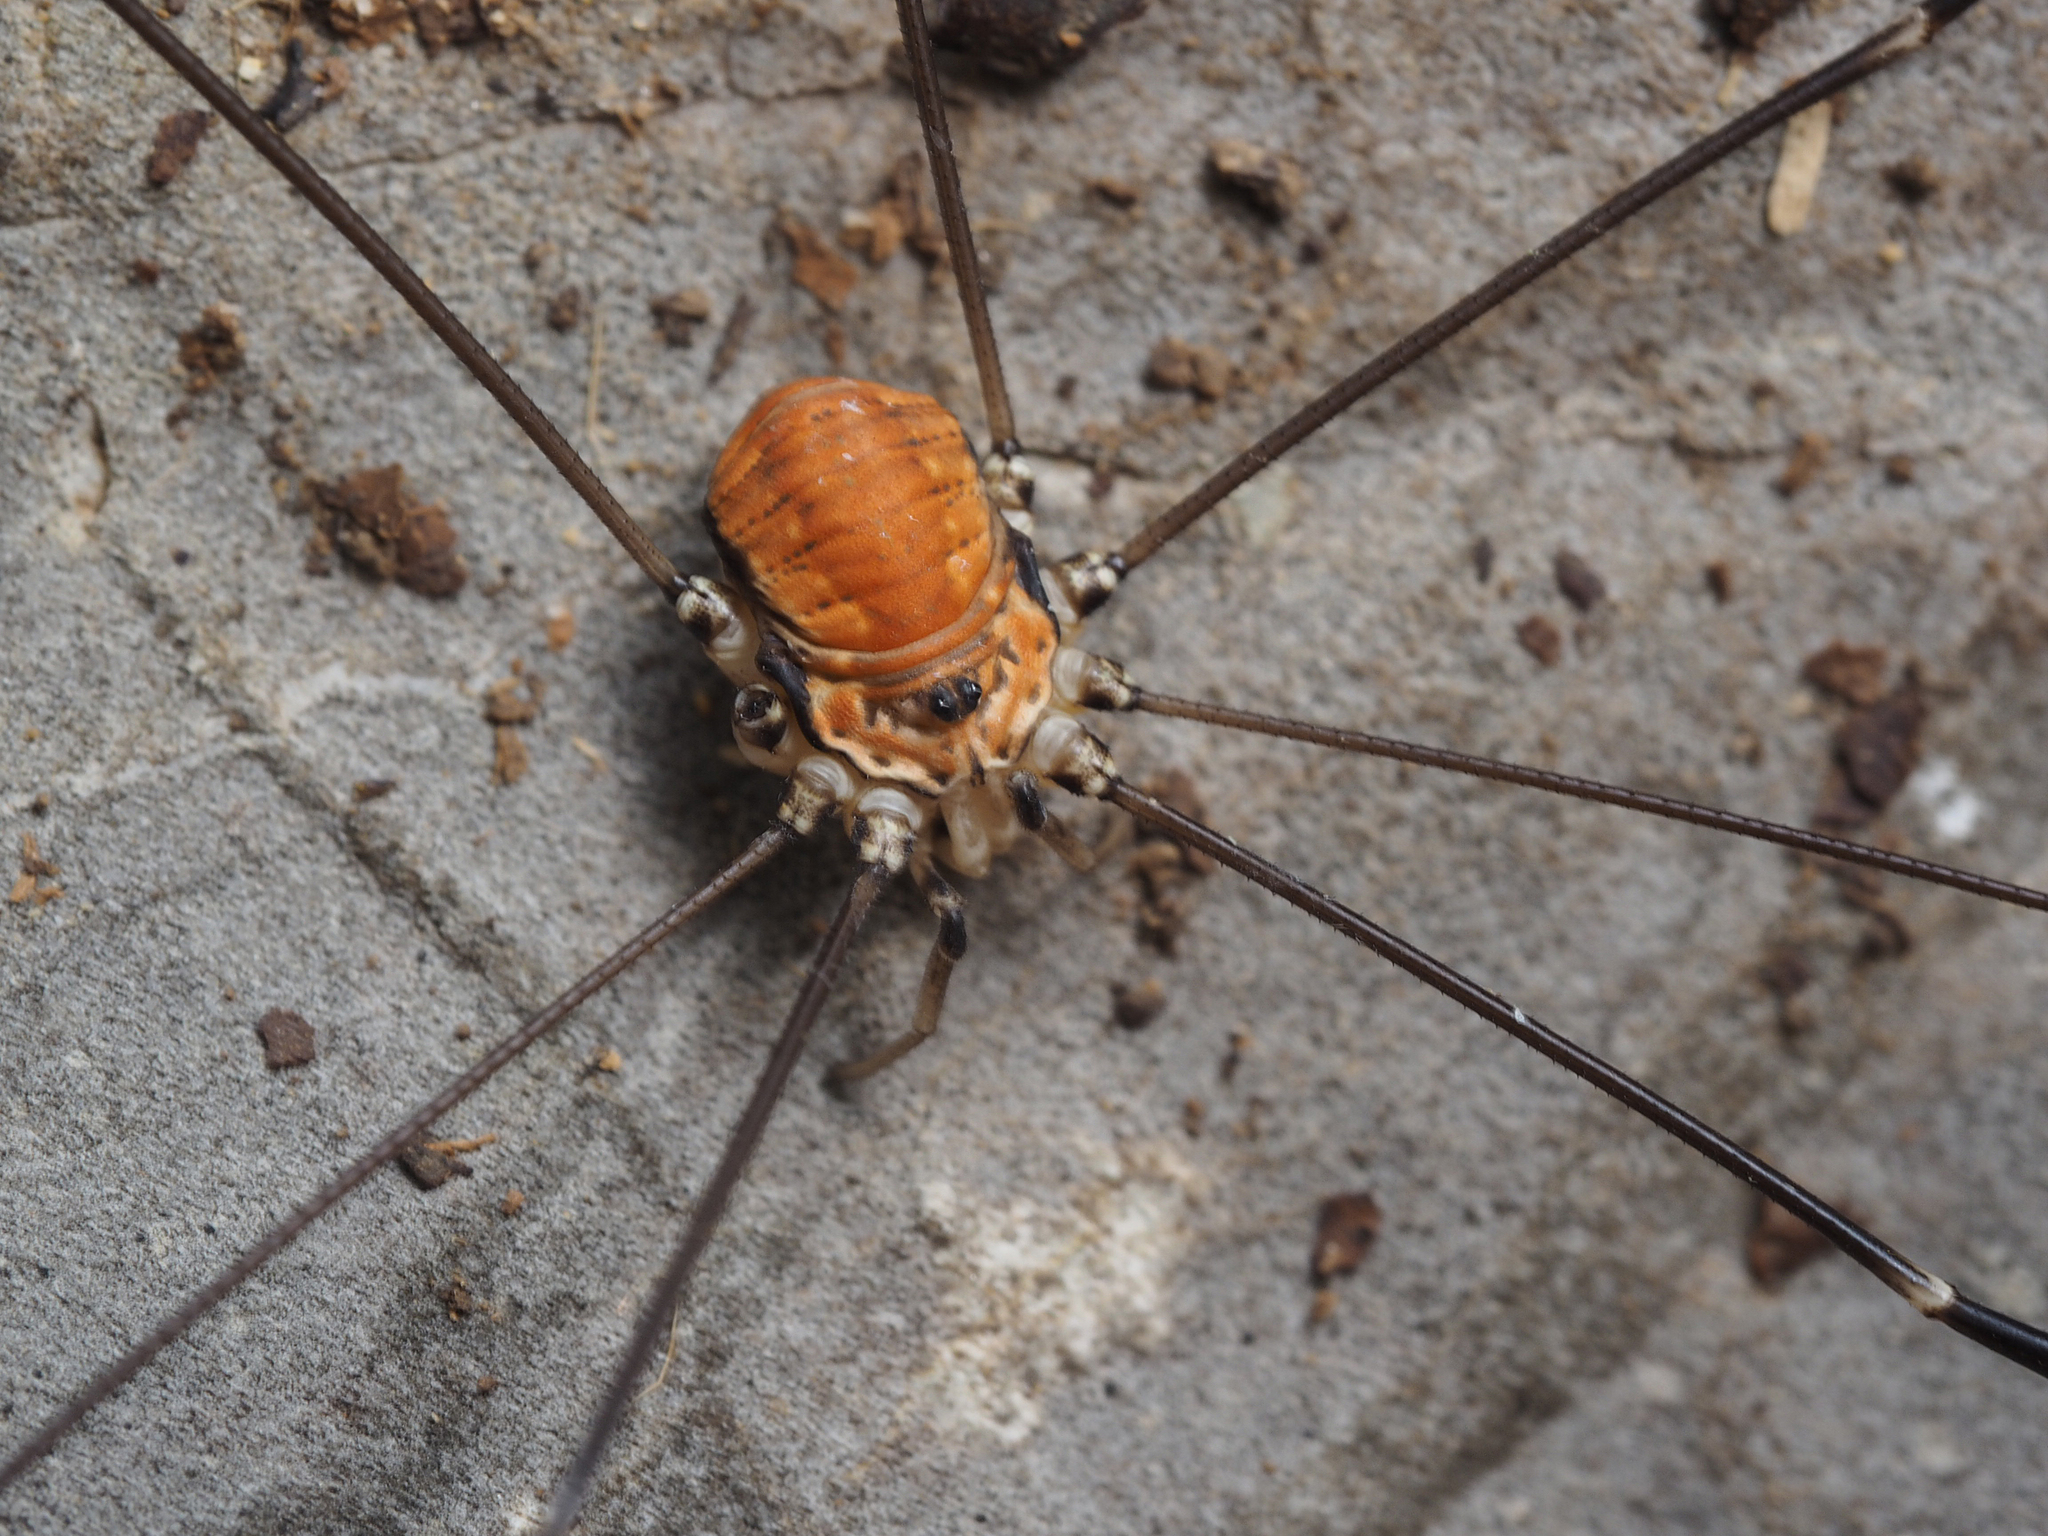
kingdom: Animalia
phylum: Arthropoda
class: Arachnida
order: Opiliones
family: Sclerosomatidae
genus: Leiobunum
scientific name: Leiobunum limbatum
